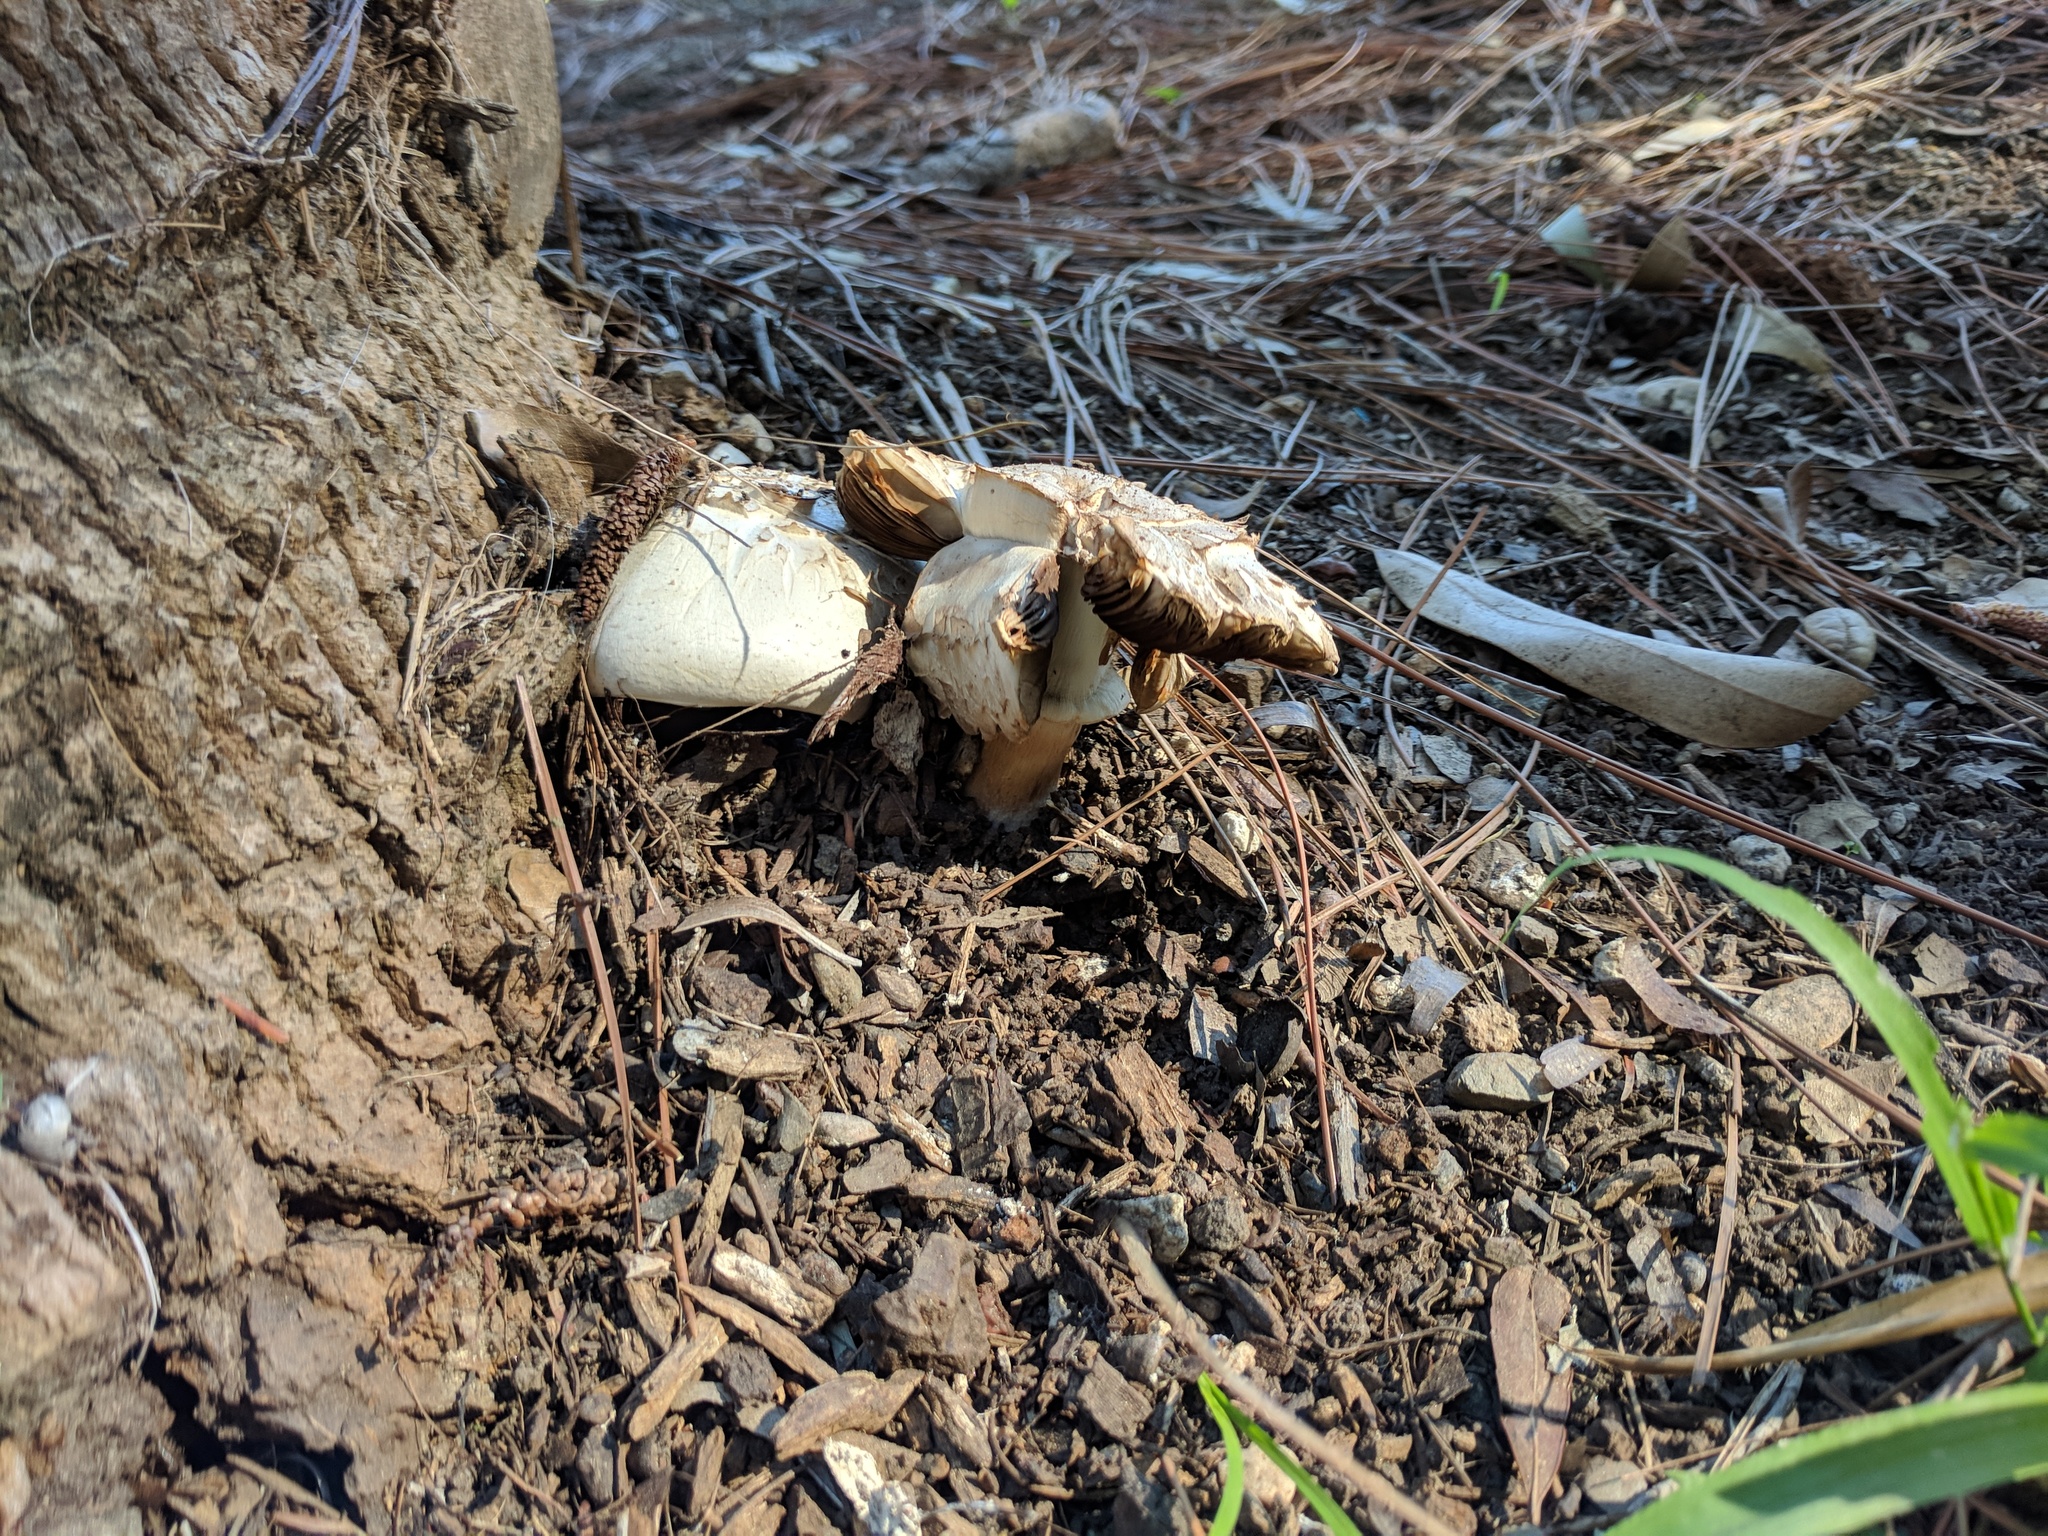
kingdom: Fungi
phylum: Basidiomycota
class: Agaricomycetes
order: Agaricales
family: Agaricaceae
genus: Agaricus
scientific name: Agaricus xanthodermus
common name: Yellow stainer
